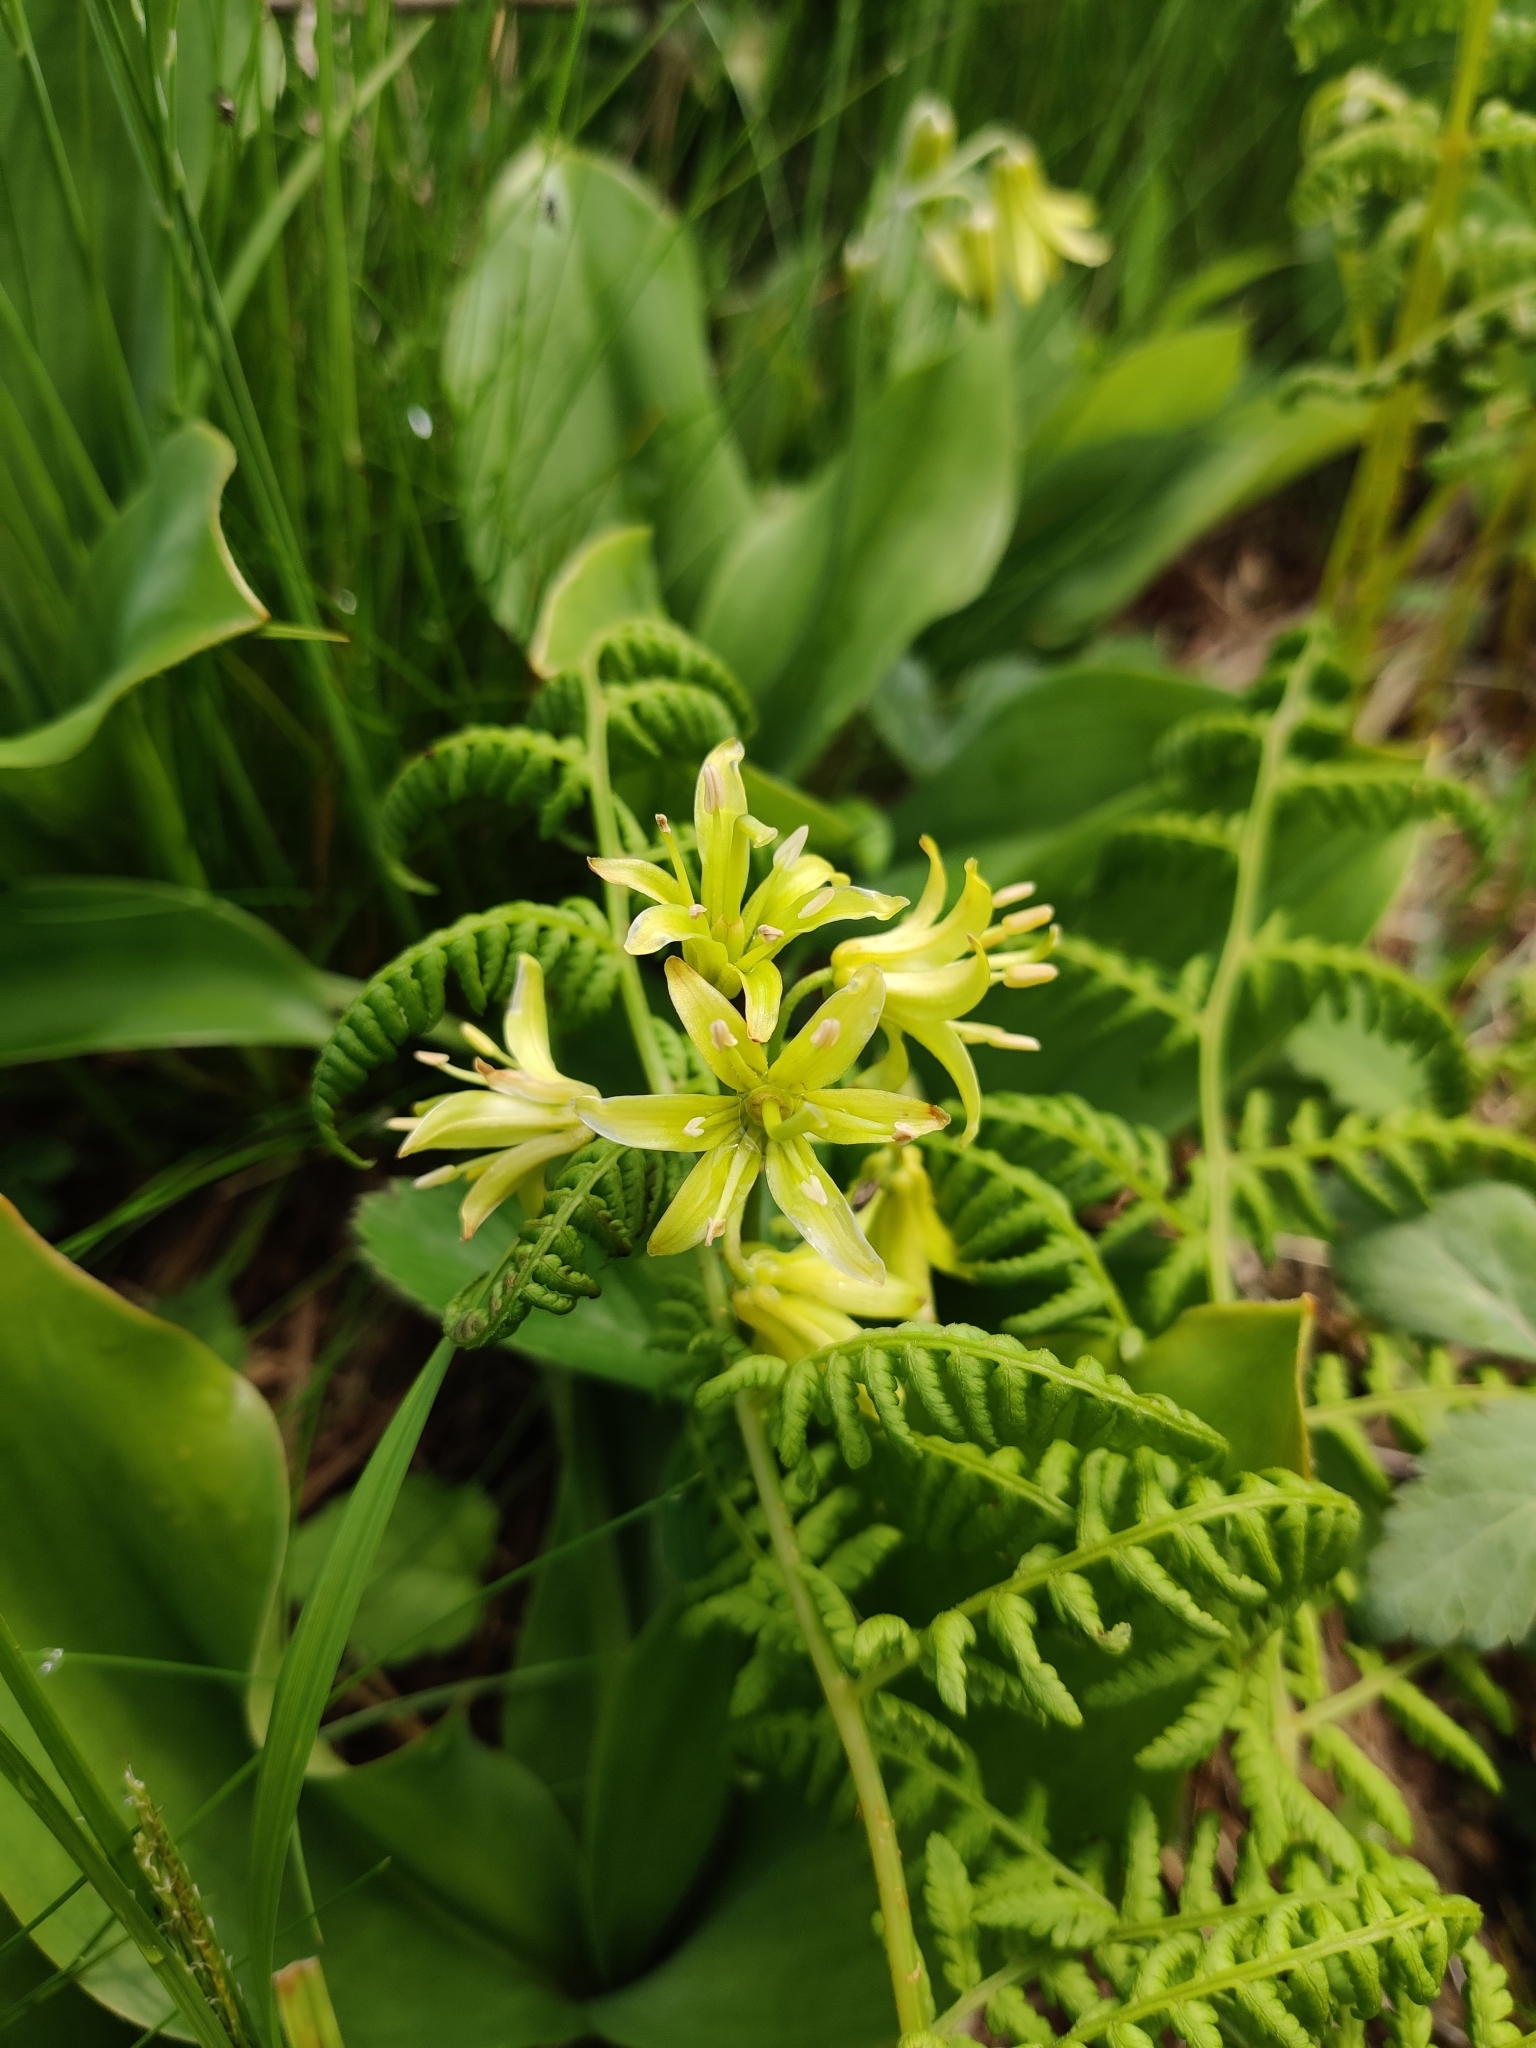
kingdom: Plantae
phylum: Tracheophyta
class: Liliopsida
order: Liliales
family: Liliaceae
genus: Clintonia
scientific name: Clintonia borealis
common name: Yellow clintonia
